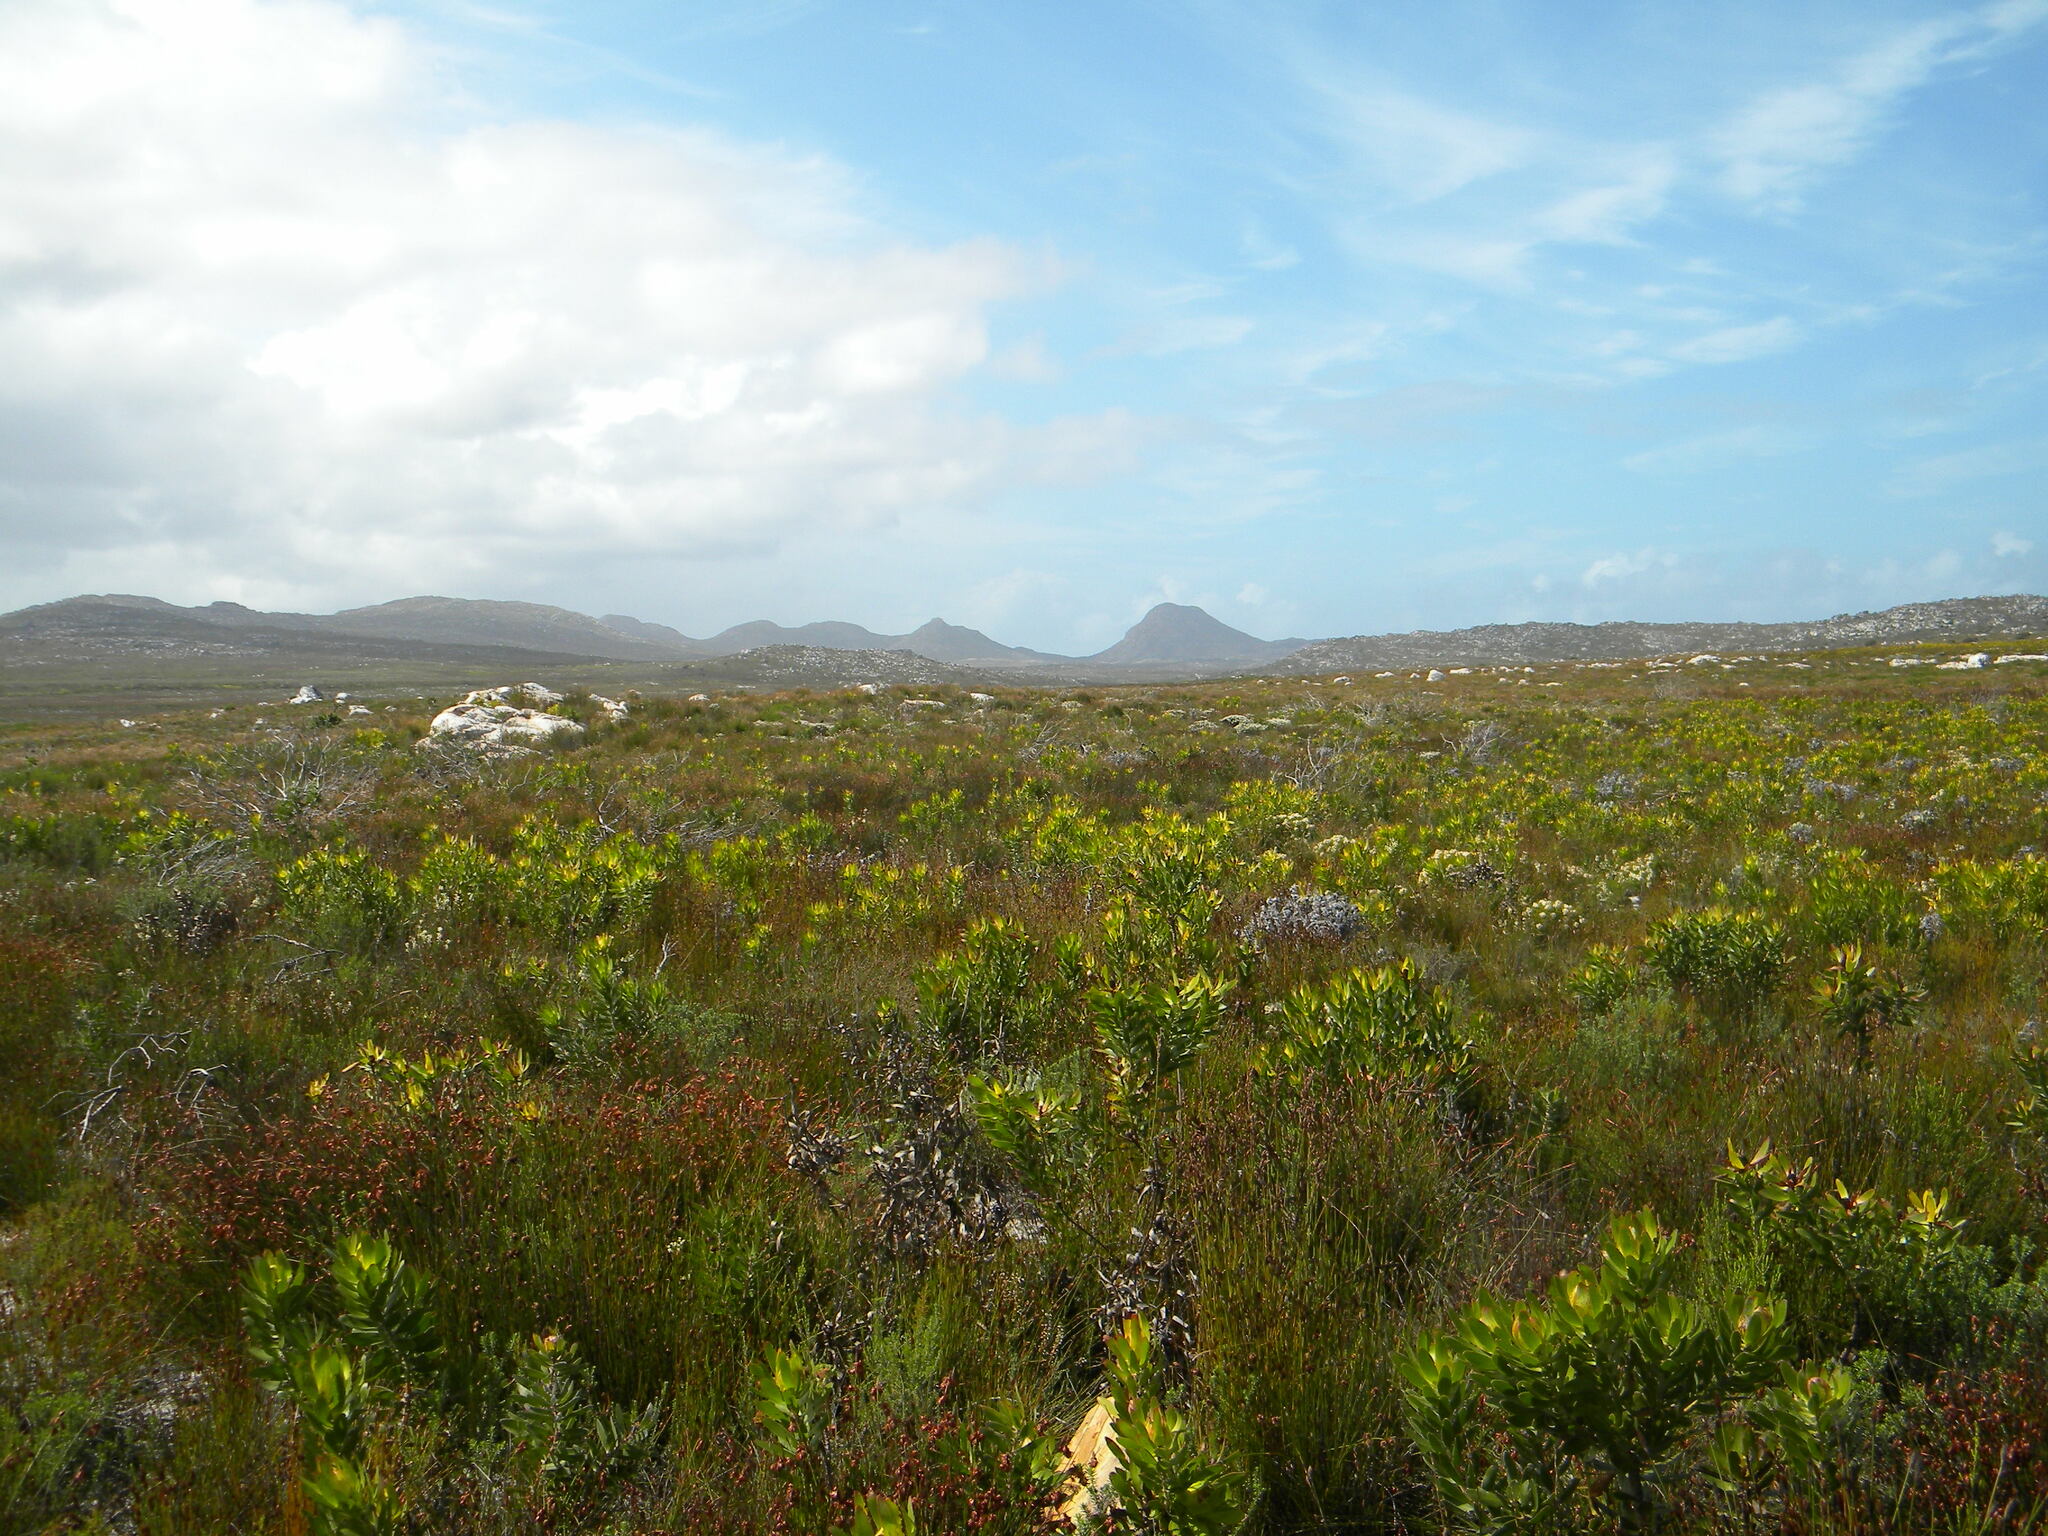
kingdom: Plantae
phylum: Tracheophyta
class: Magnoliopsida
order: Proteales
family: Proteaceae
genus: Leucadendron
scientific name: Leucadendron laureolum
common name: Golden sunshinebush
